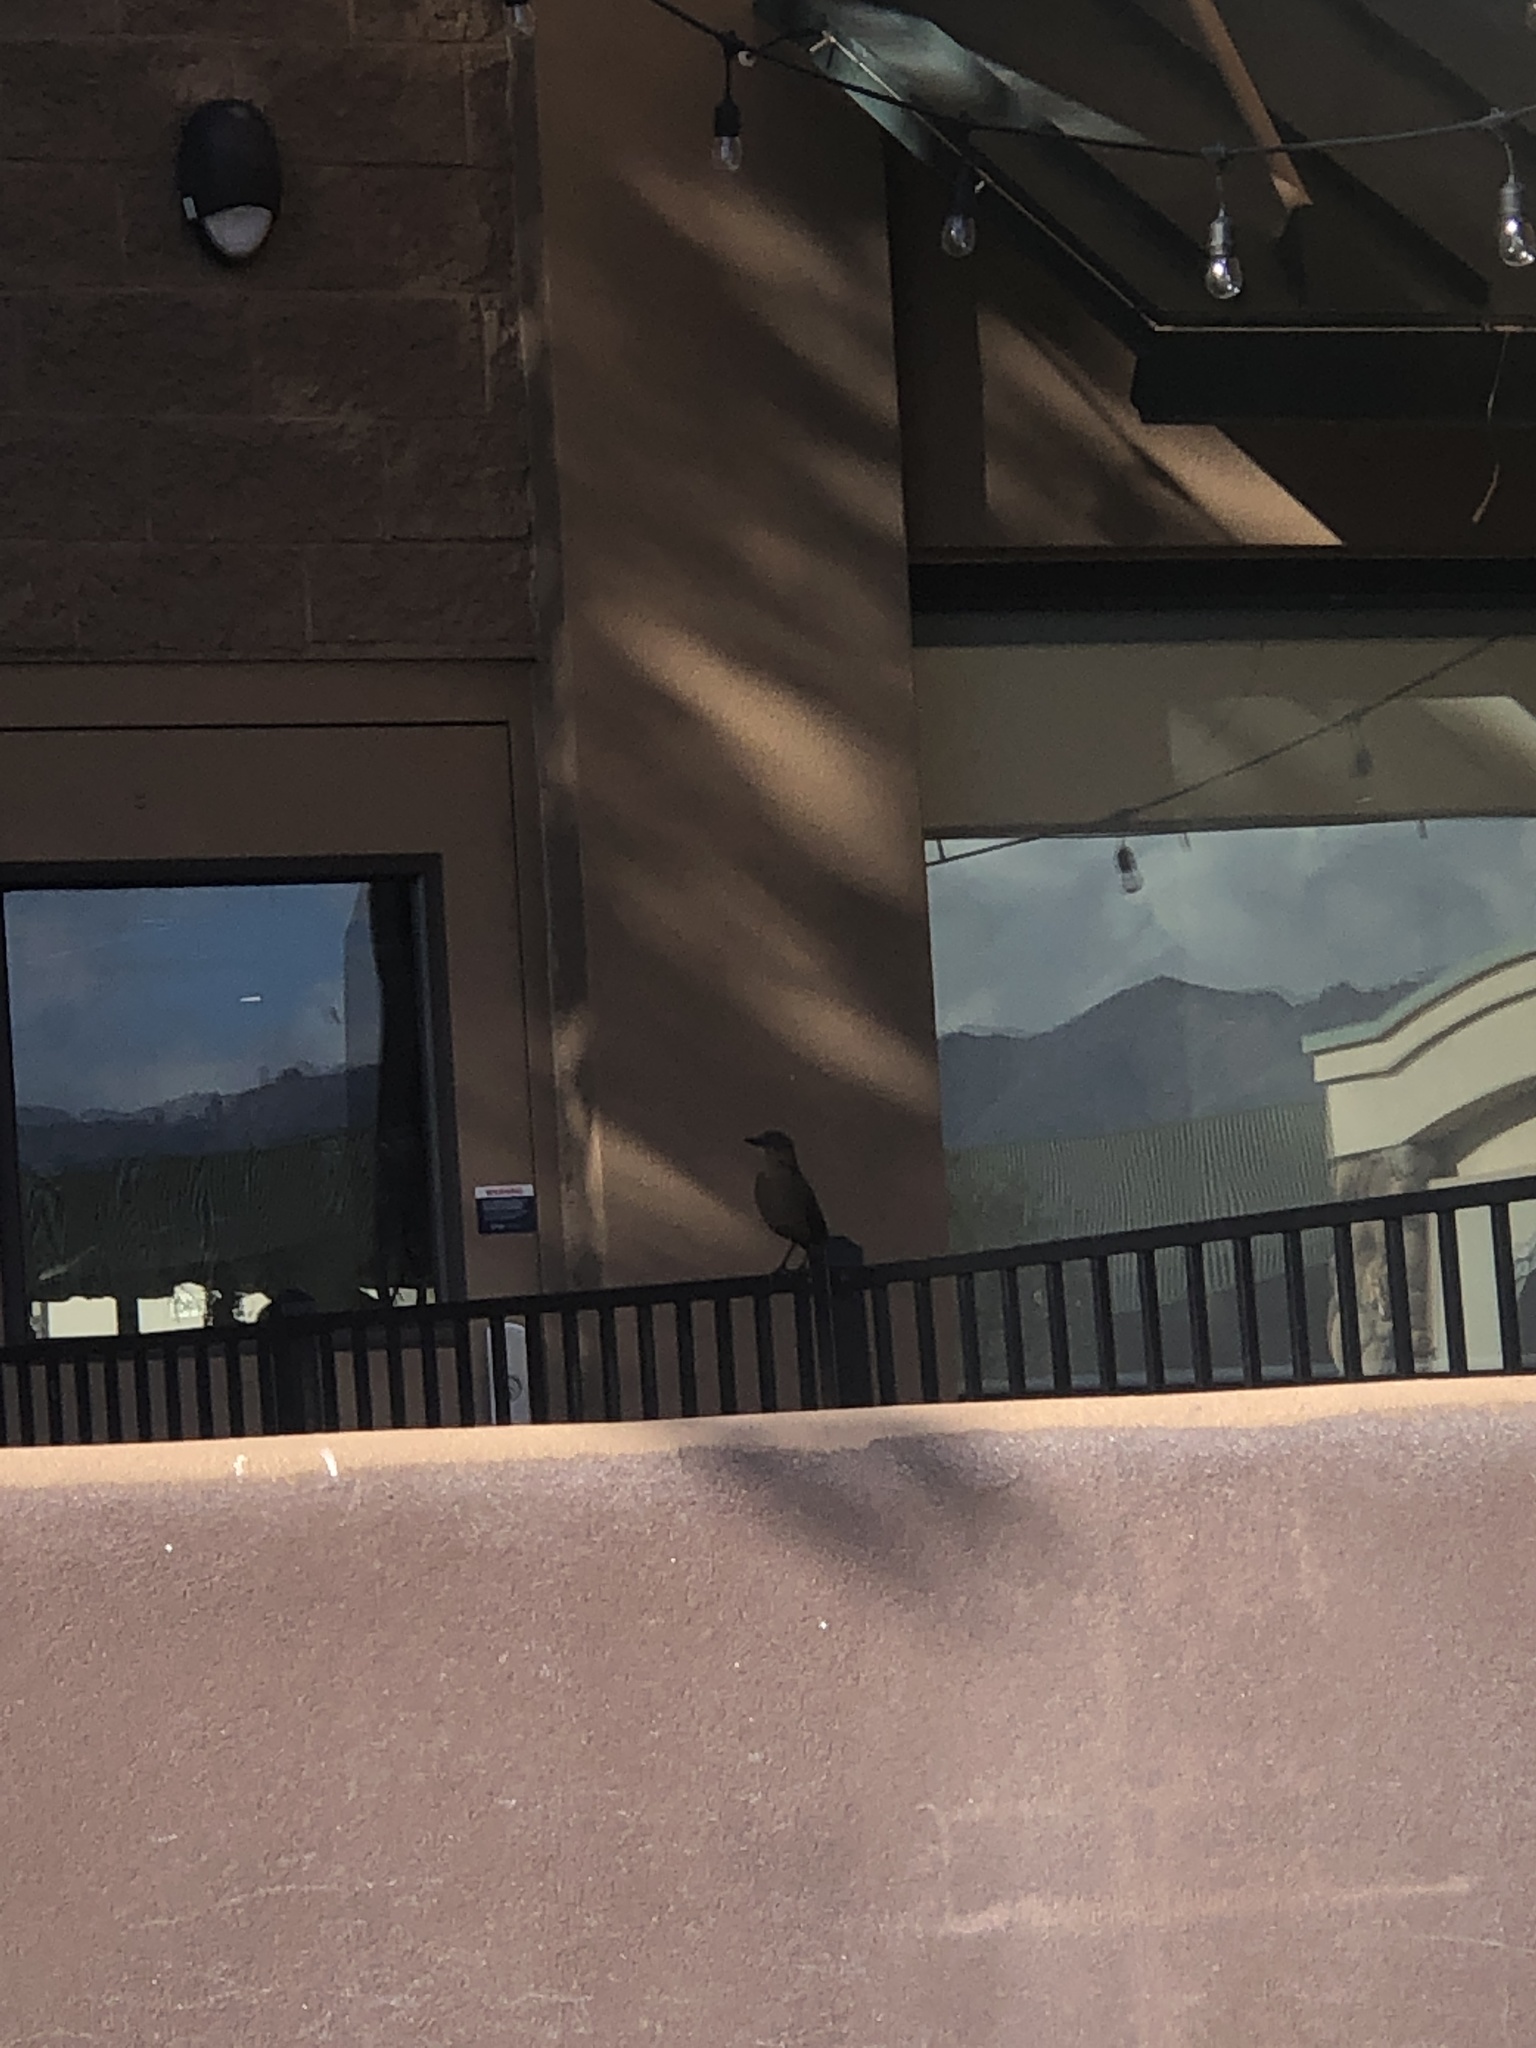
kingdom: Animalia
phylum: Chordata
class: Aves
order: Passeriformes
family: Icteridae
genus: Quiscalus
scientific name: Quiscalus mexicanus
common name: Great-tailed grackle
